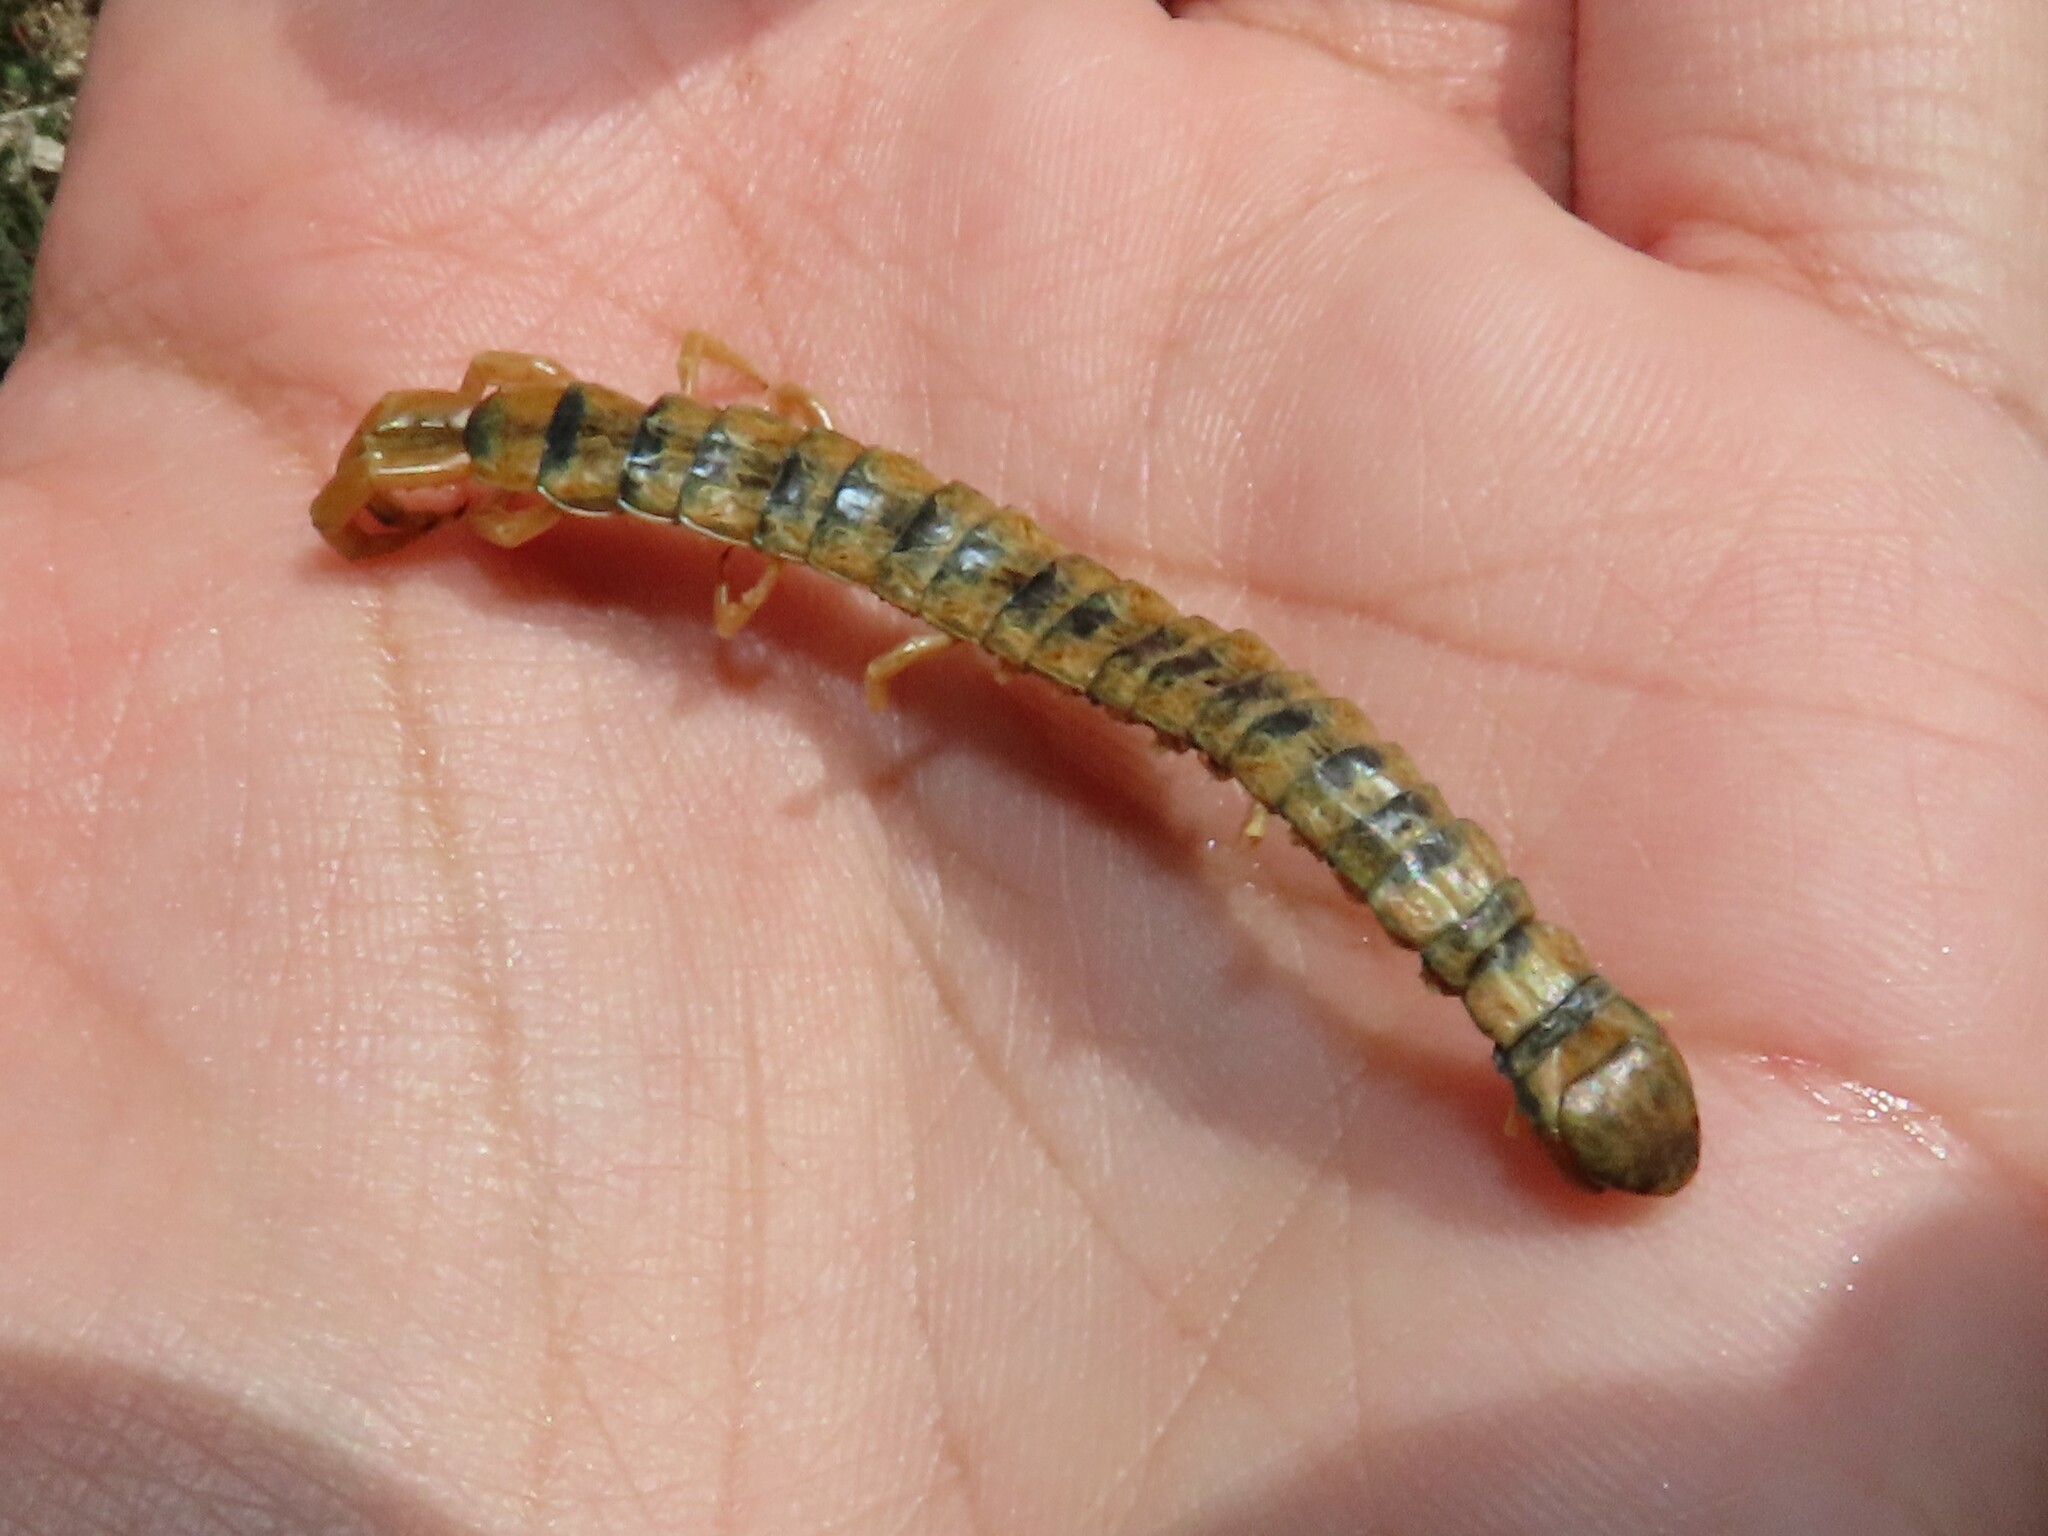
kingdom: Animalia
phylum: Arthropoda
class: Chilopoda
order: Scolopendromorpha
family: Scolopendridae
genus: Scolopendra
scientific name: Scolopendra cingulata
